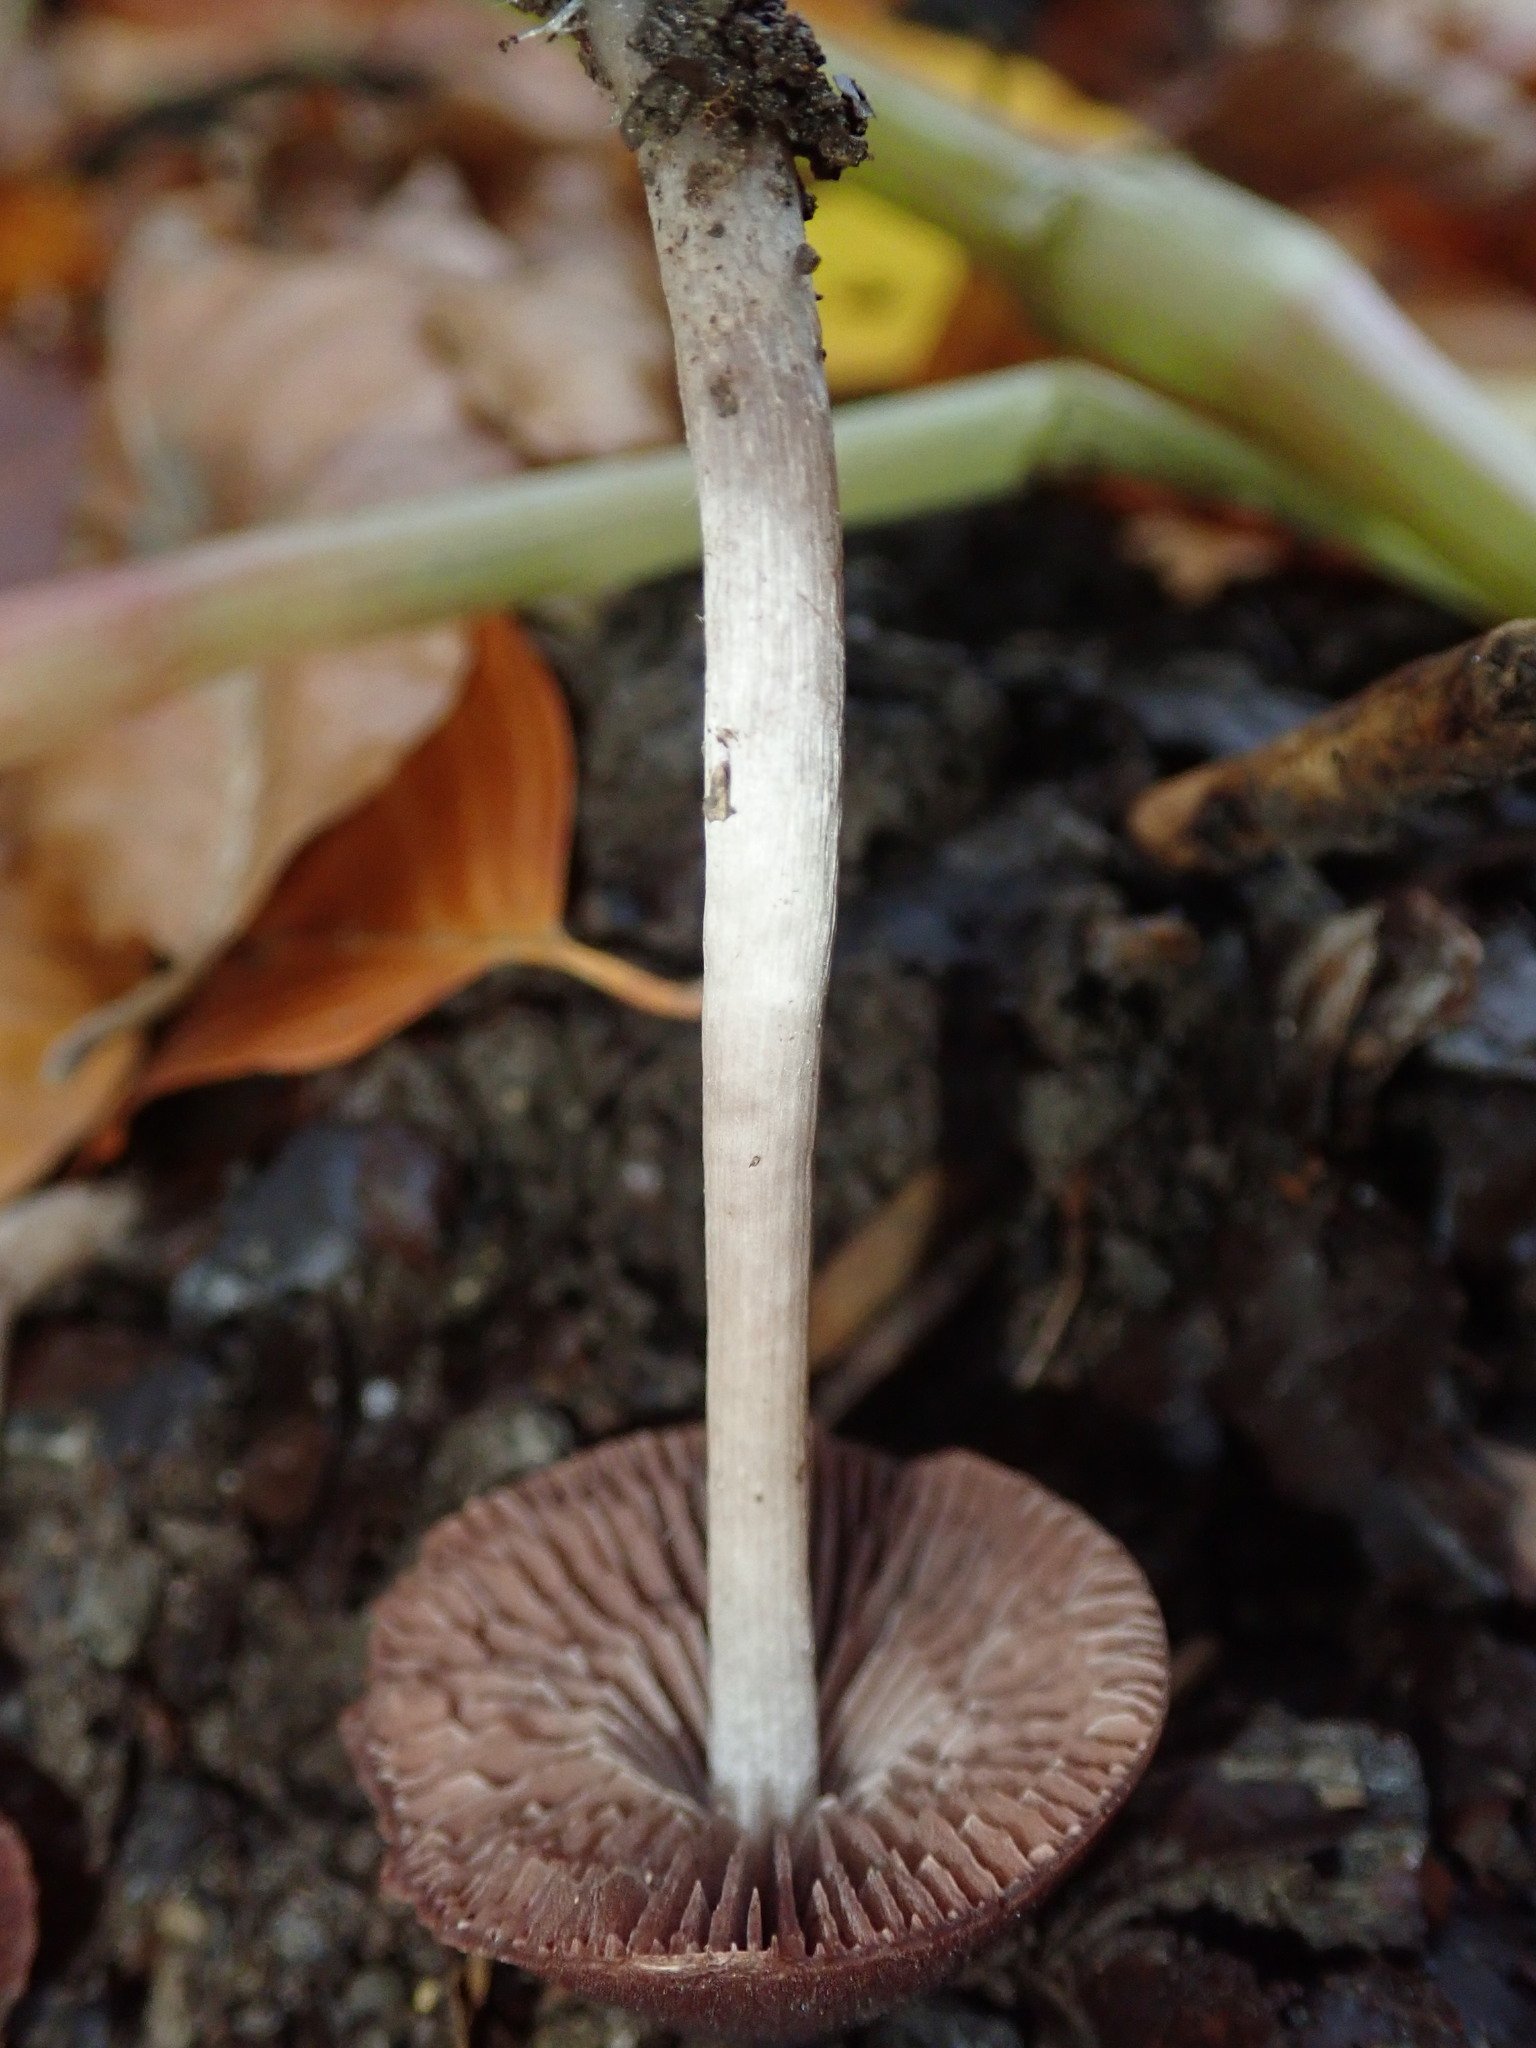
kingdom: Fungi
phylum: Basidiomycota
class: Agaricomycetes
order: Agaricales
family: Psathyrellaceae
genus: Psathyrella
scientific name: Psathyrella bipellis
